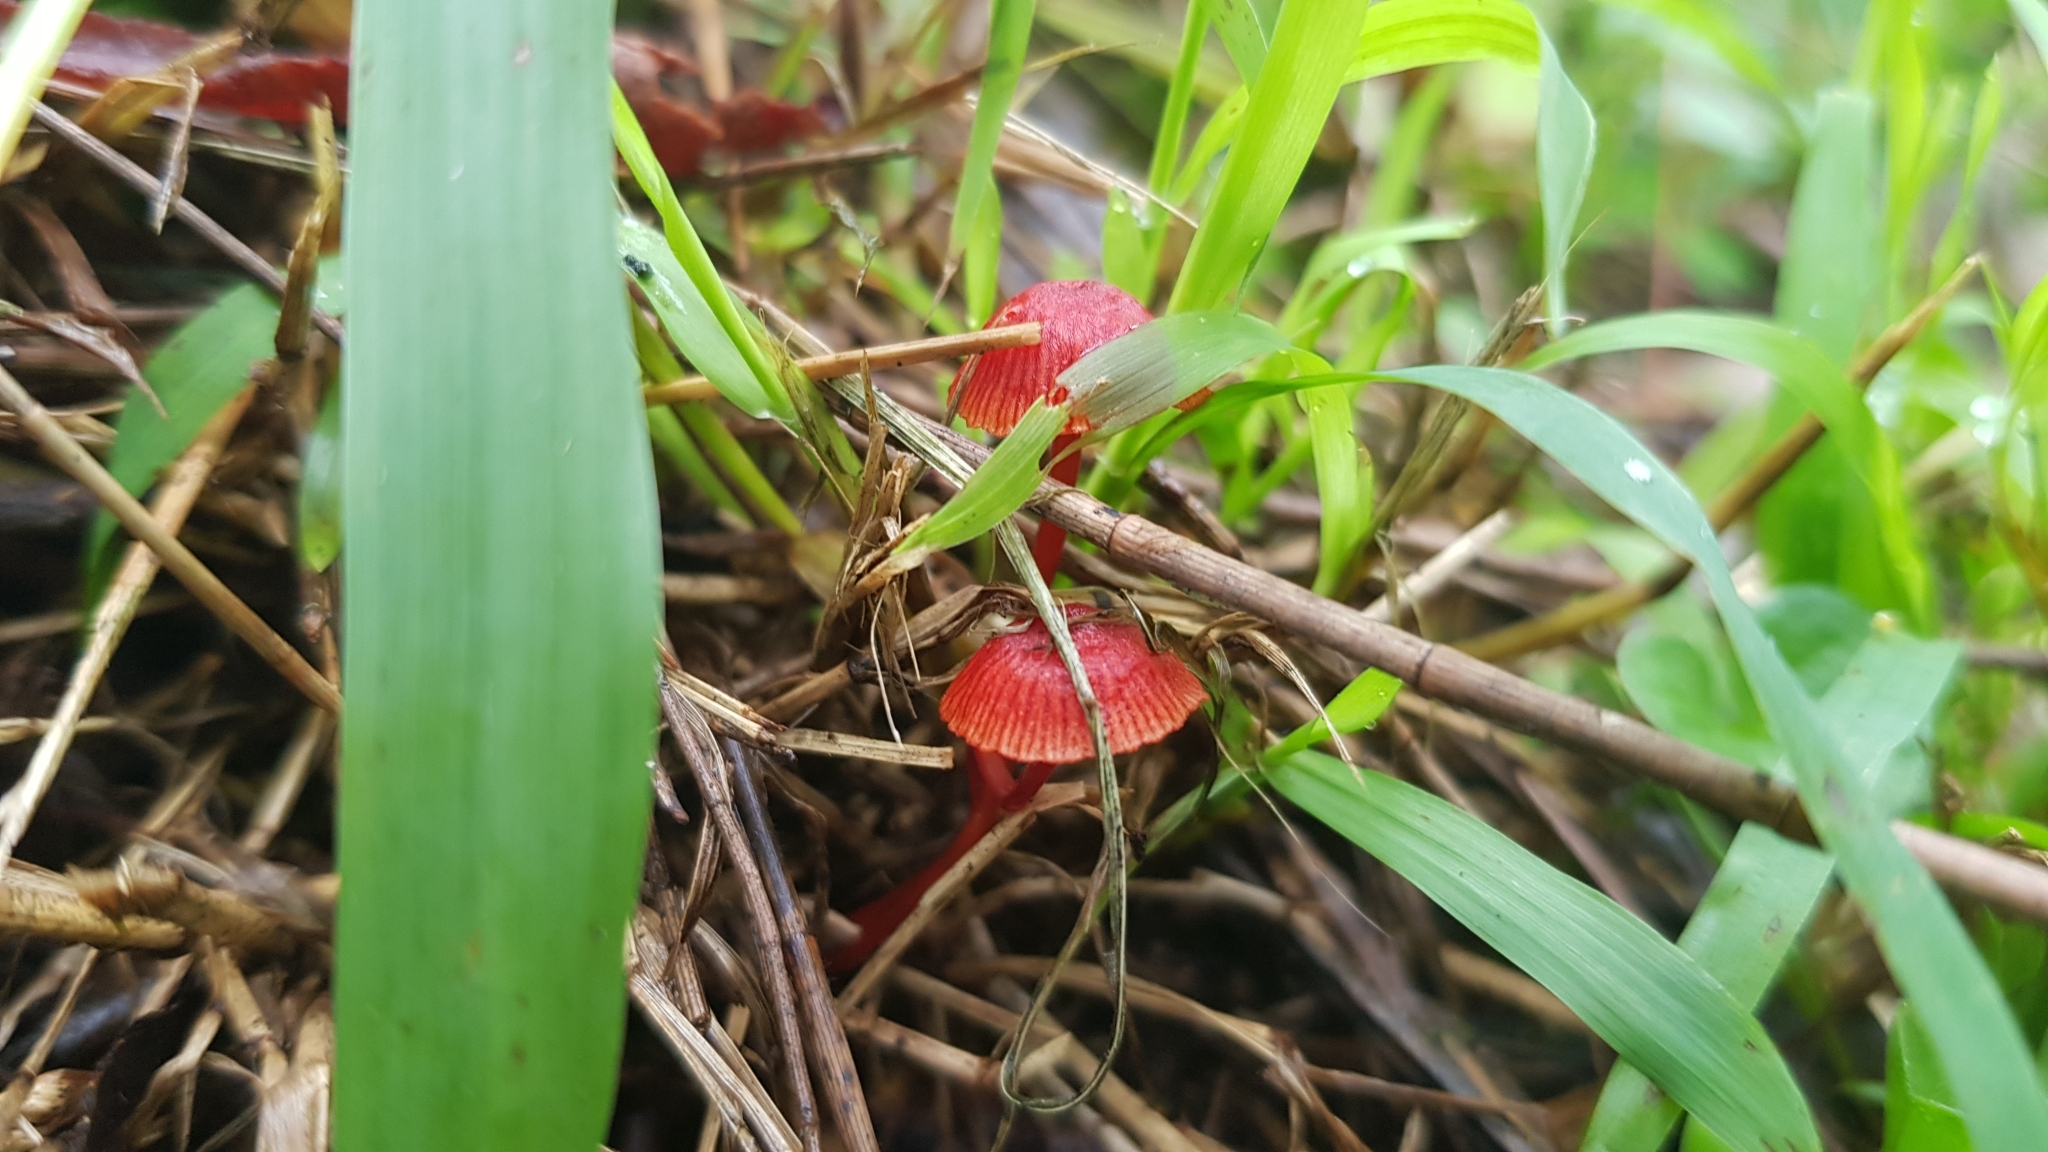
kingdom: Fungi
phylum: Basidiomycota
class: Agaricomycetes
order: Agaricales
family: Mycenaceae
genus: Cruentomycena
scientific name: Cruentomycena viscidocruenta
